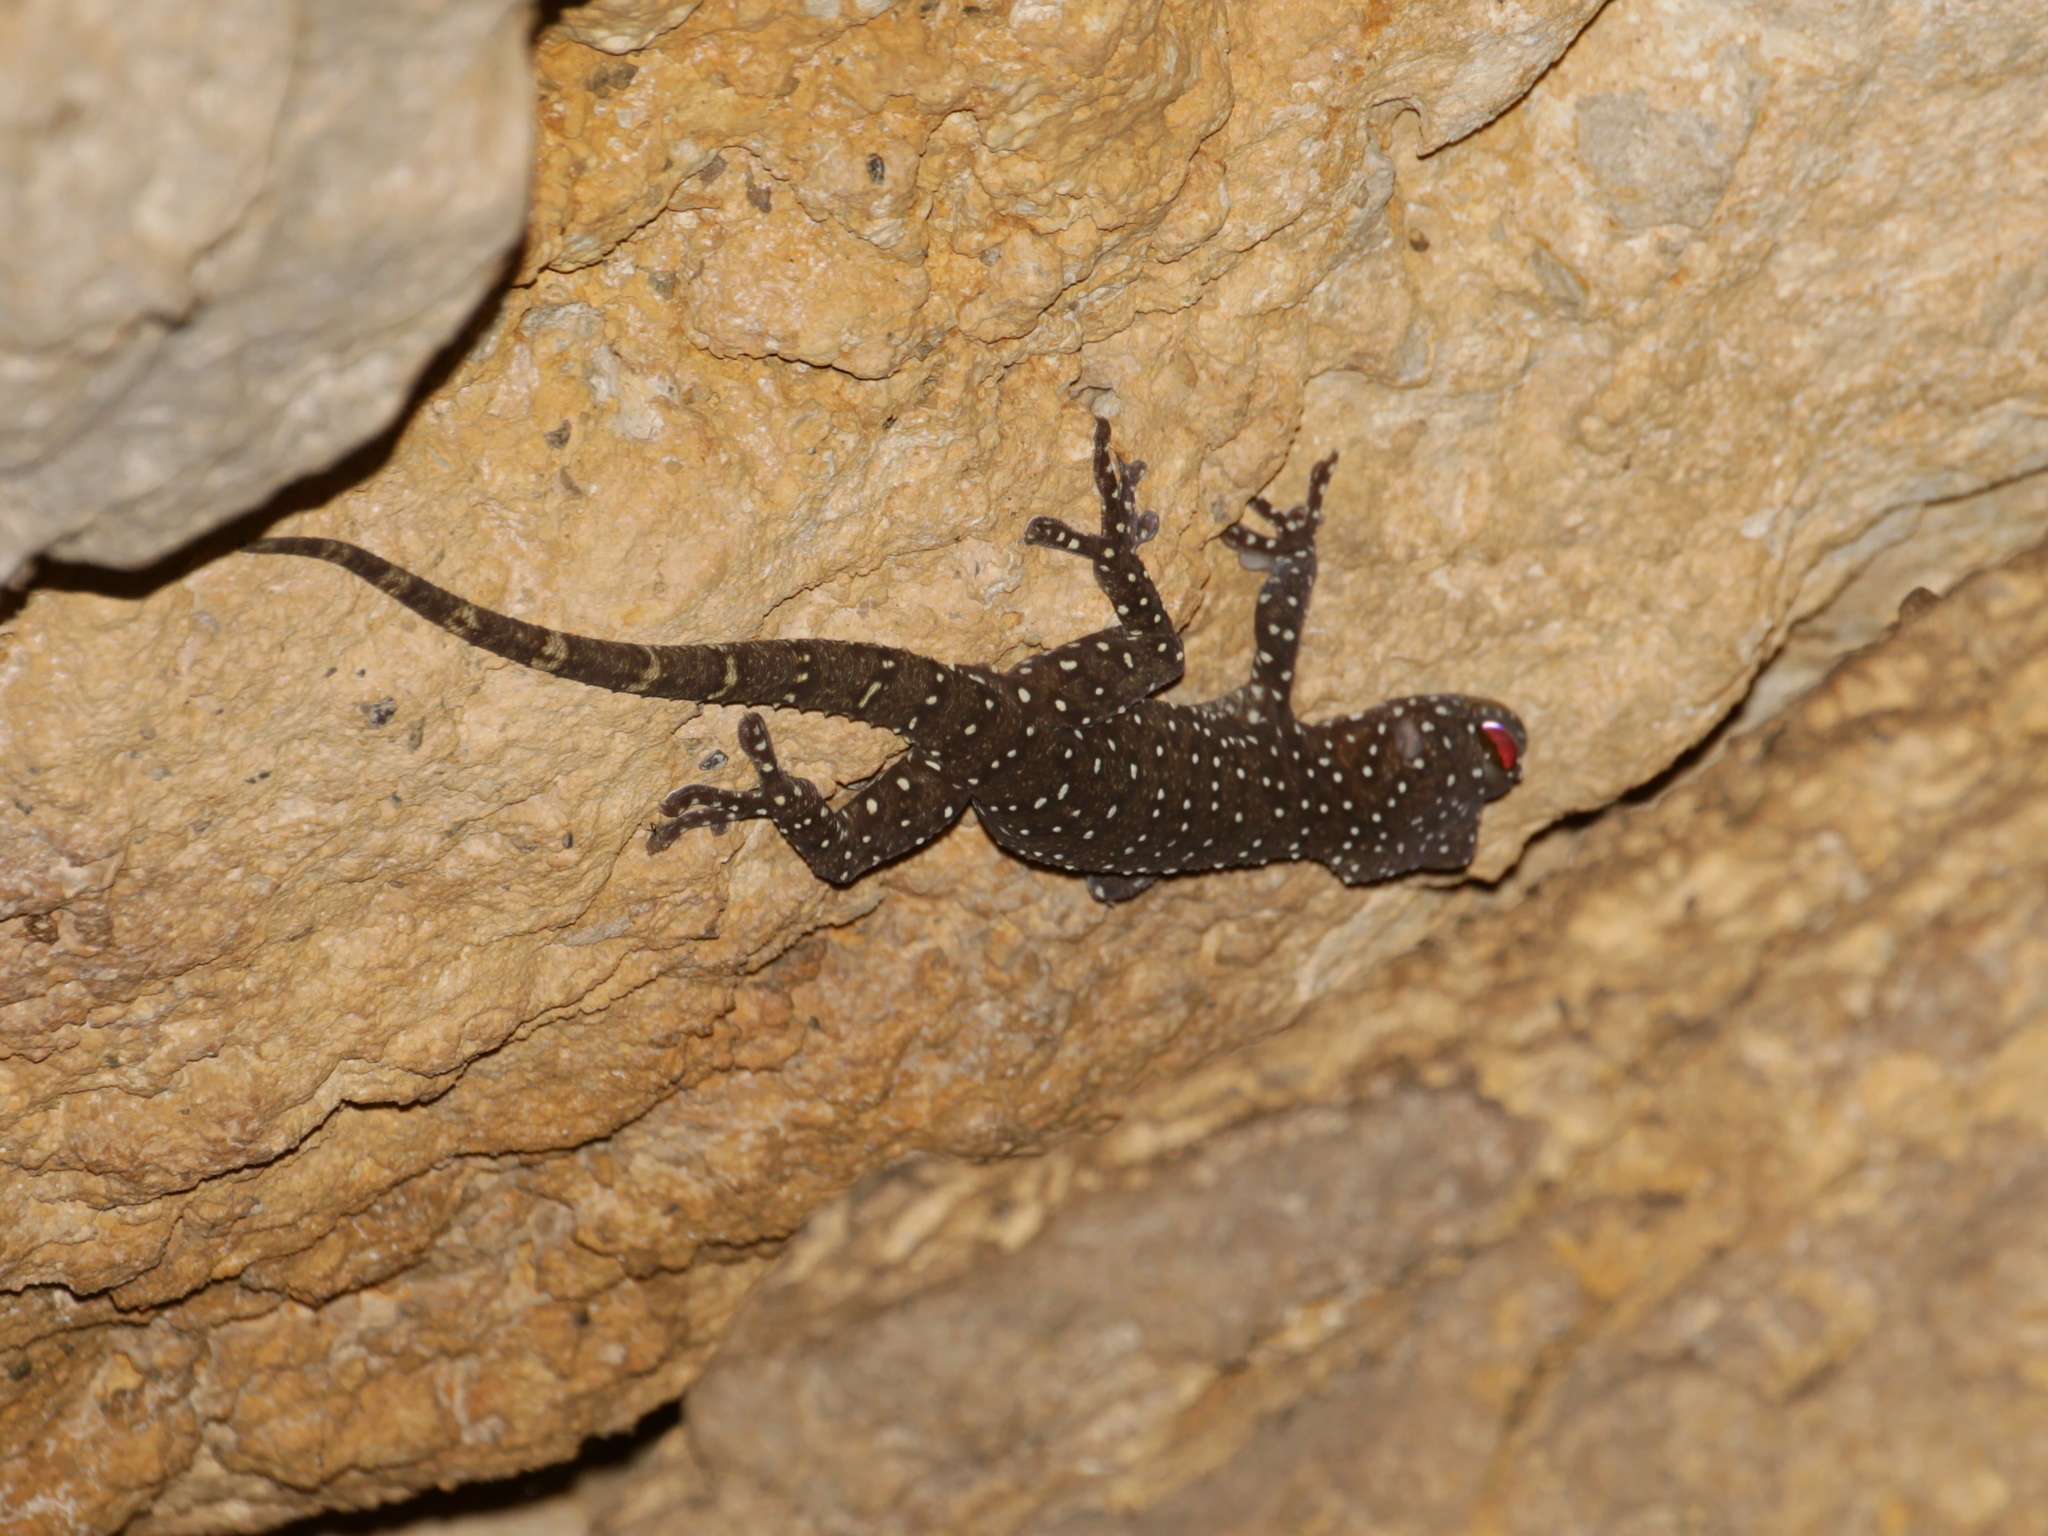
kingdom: Animalia
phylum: Chordata
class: Squamata
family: Gekkonidae
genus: Gekko
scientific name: Gekko pradapdao
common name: Starry tokay gecko
